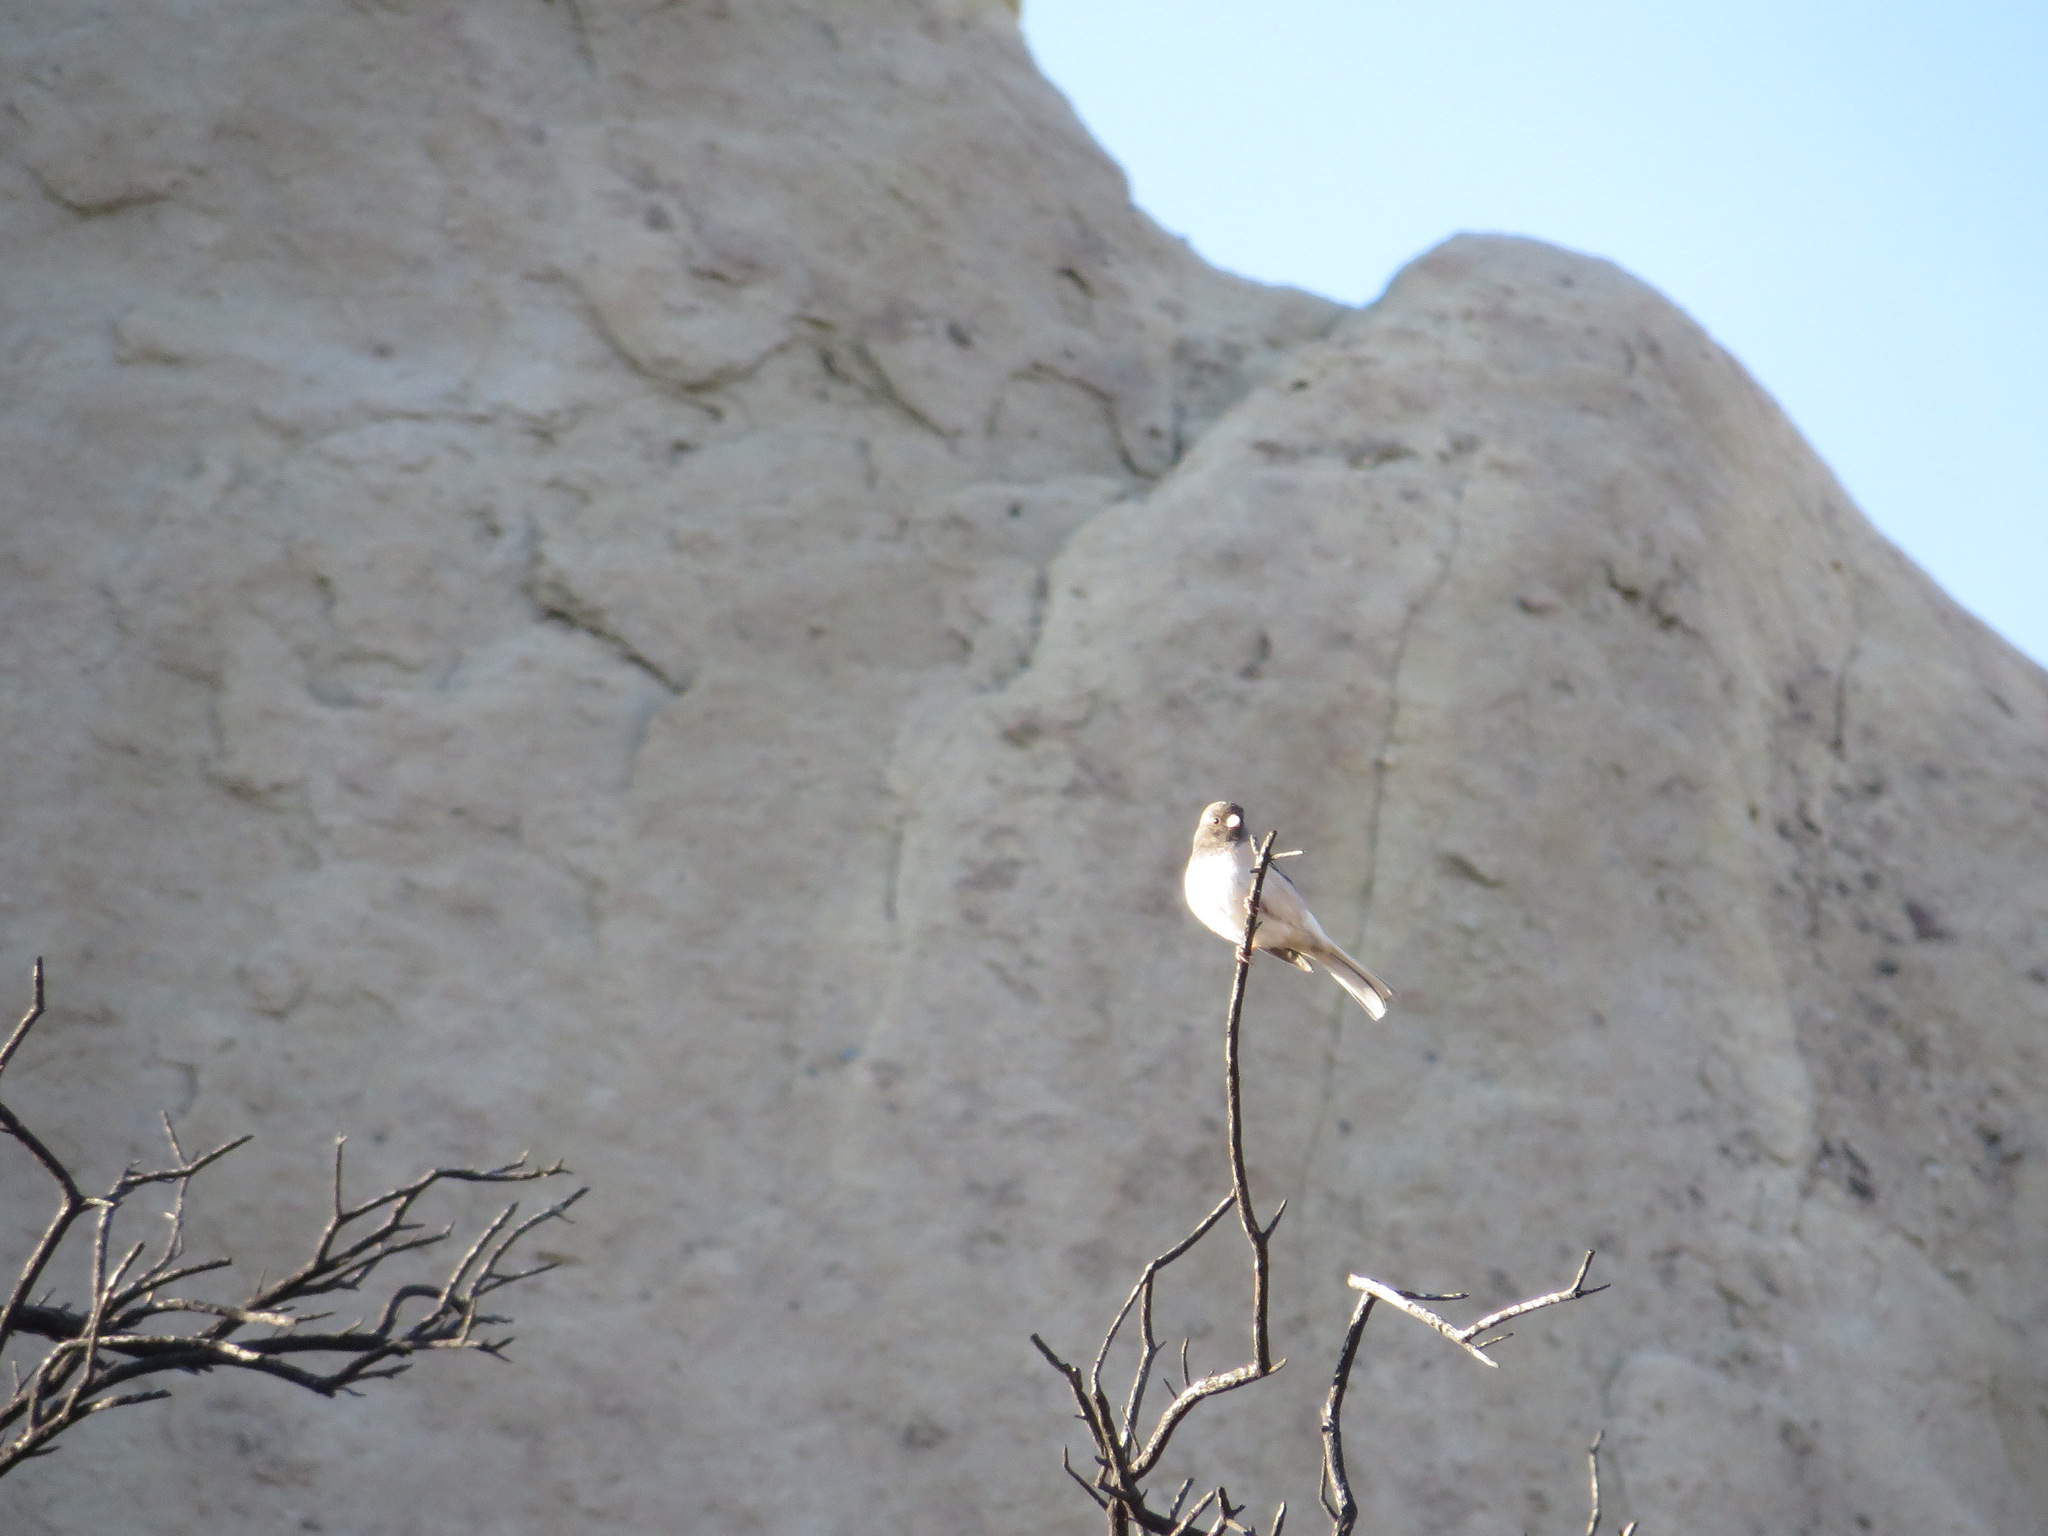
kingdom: Animalia
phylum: Chordata
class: Aves
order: Passeriformes
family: Passerellidae
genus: Junco
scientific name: Junco hyemalis
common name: Dark-eyed junco
